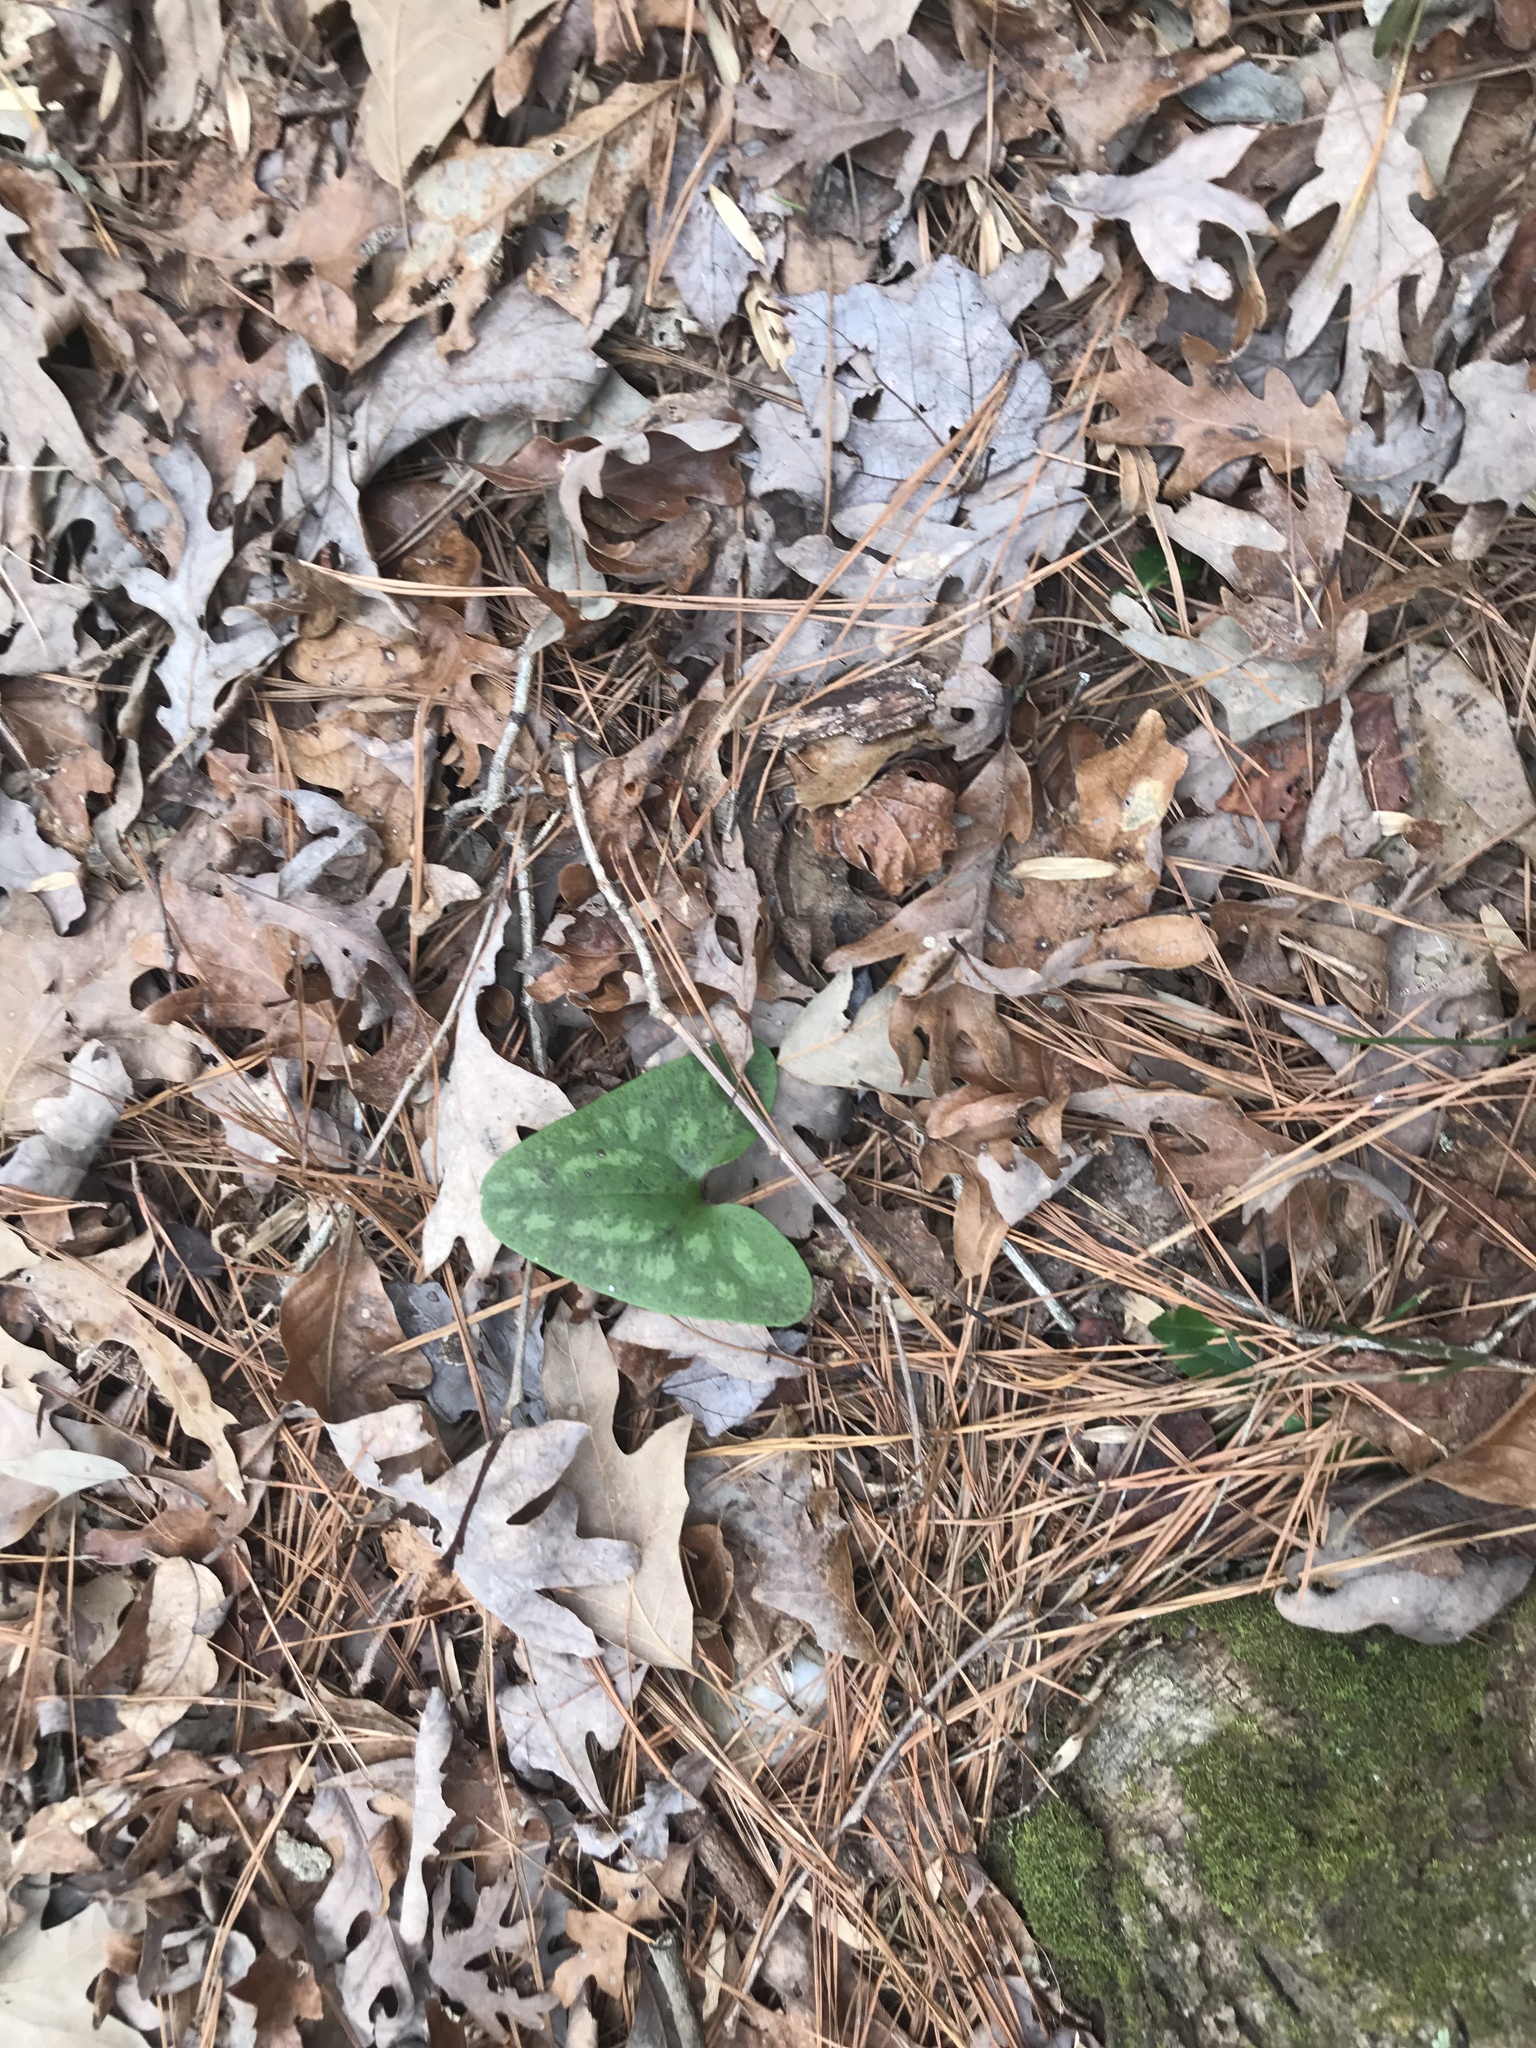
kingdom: Plantae
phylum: Tracheophyta
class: Magnoliopsida
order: Piperales
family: Aristolochiaceae
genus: Hexastylis
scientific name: Hexastylis arifolia
